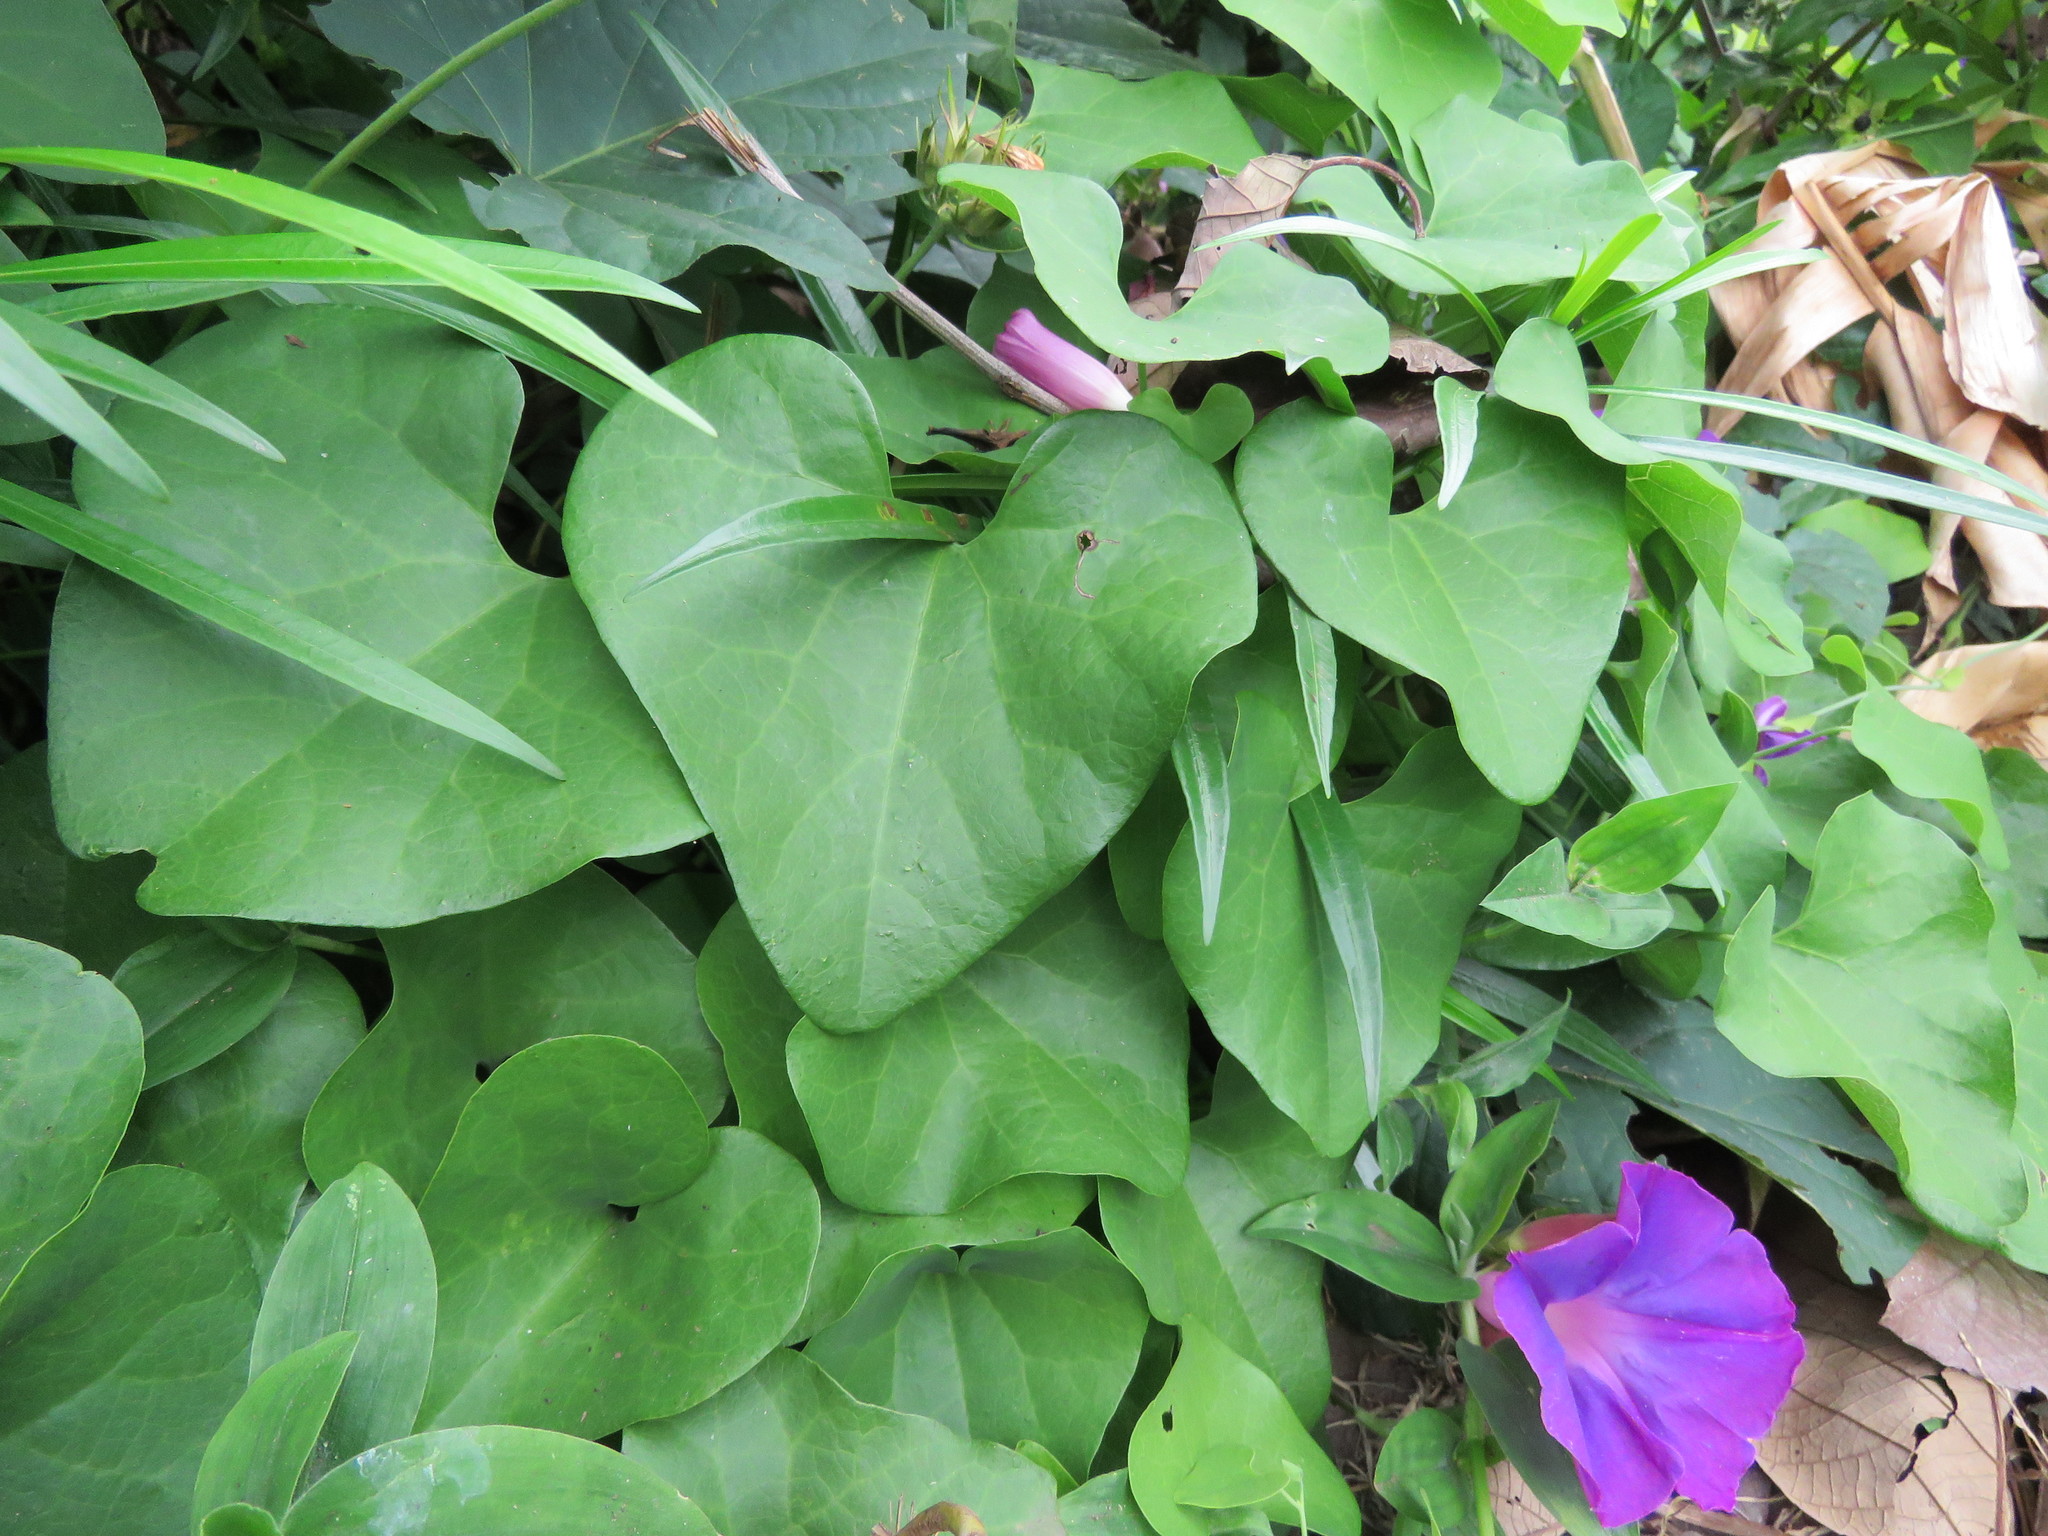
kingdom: Plantae
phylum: Tracheophyta
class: Magnoliopsida
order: Solanales
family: Convolvulaceae
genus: Ipomoea
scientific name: Ipomoea indica
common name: Blue dawnflower
